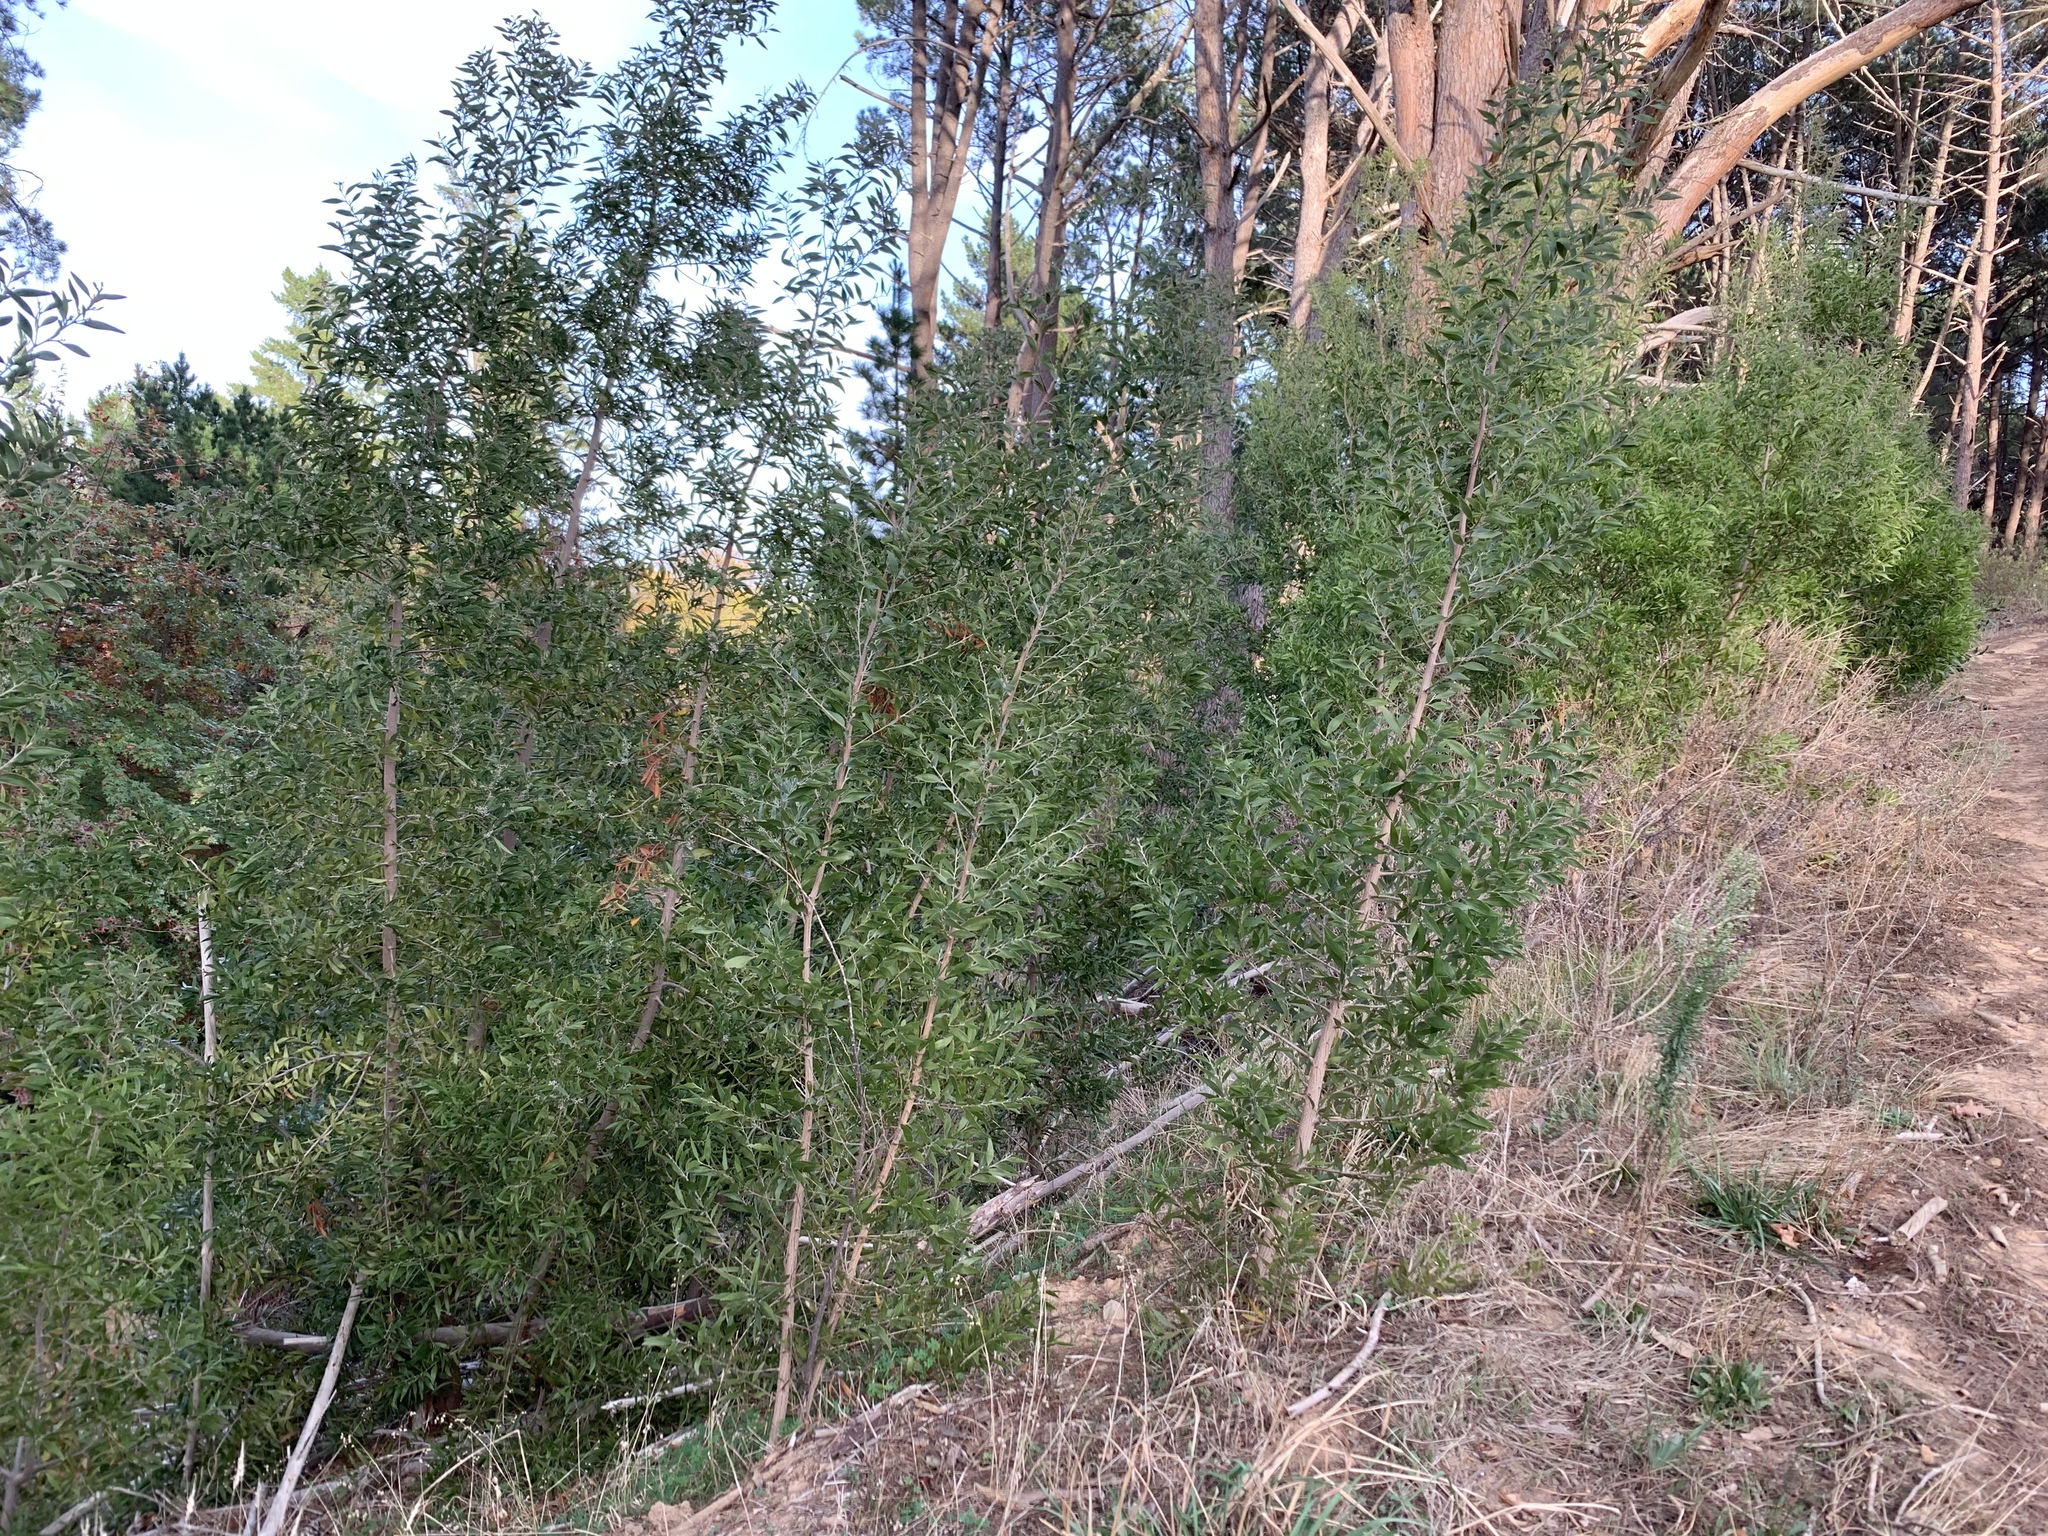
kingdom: Plantae
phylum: Tracheophyta
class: Magnoliopsida
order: Fabales
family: Fabaceae
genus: Acacia
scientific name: Acacia melanoxylon
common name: Blackwood
